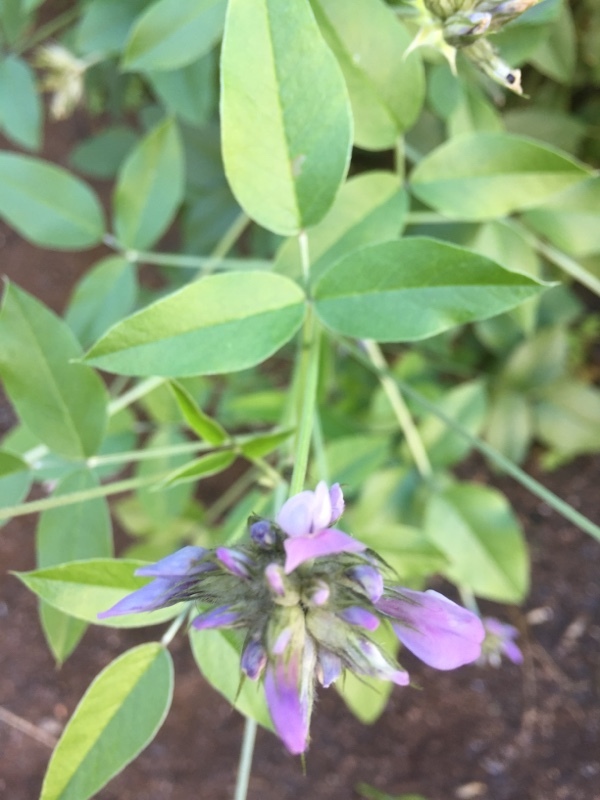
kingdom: Plantae
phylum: Tracheophyta
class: Magnoliopsida
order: Fabales
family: Fabaceae
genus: Bituminaria
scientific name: Bituminaria bituminosa
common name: Arabian pea
